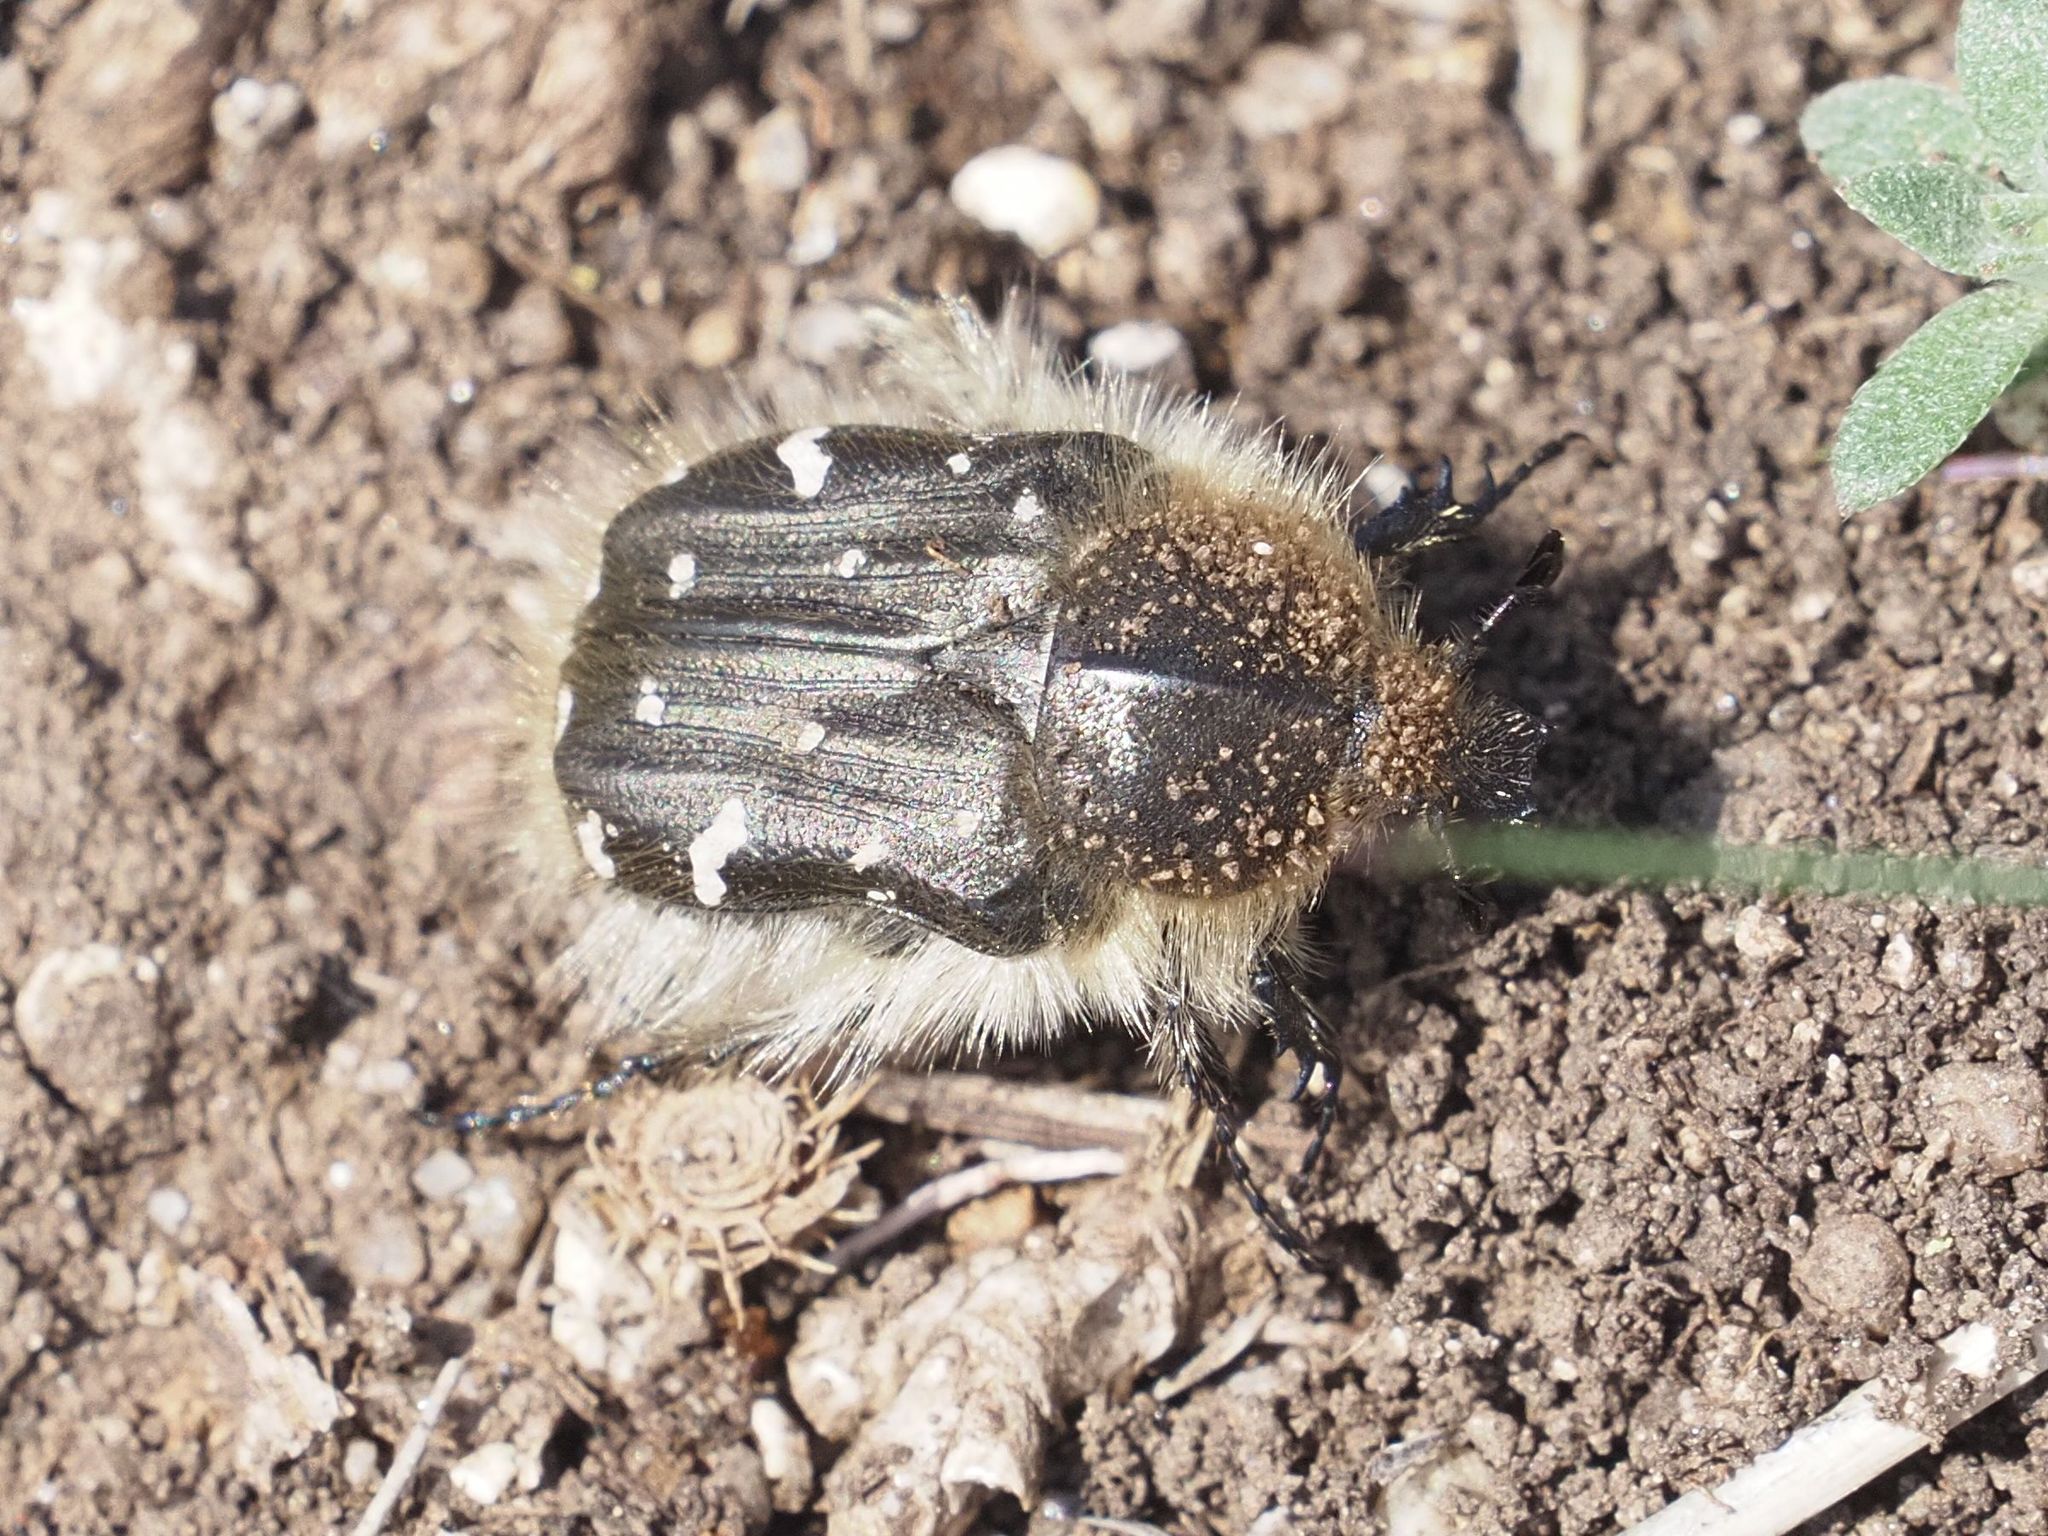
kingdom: Animalia
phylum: Arthropoda
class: Insecta
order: Coleoptera
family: Scarabaeidae
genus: Tropinota
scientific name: Tropinota hirta
